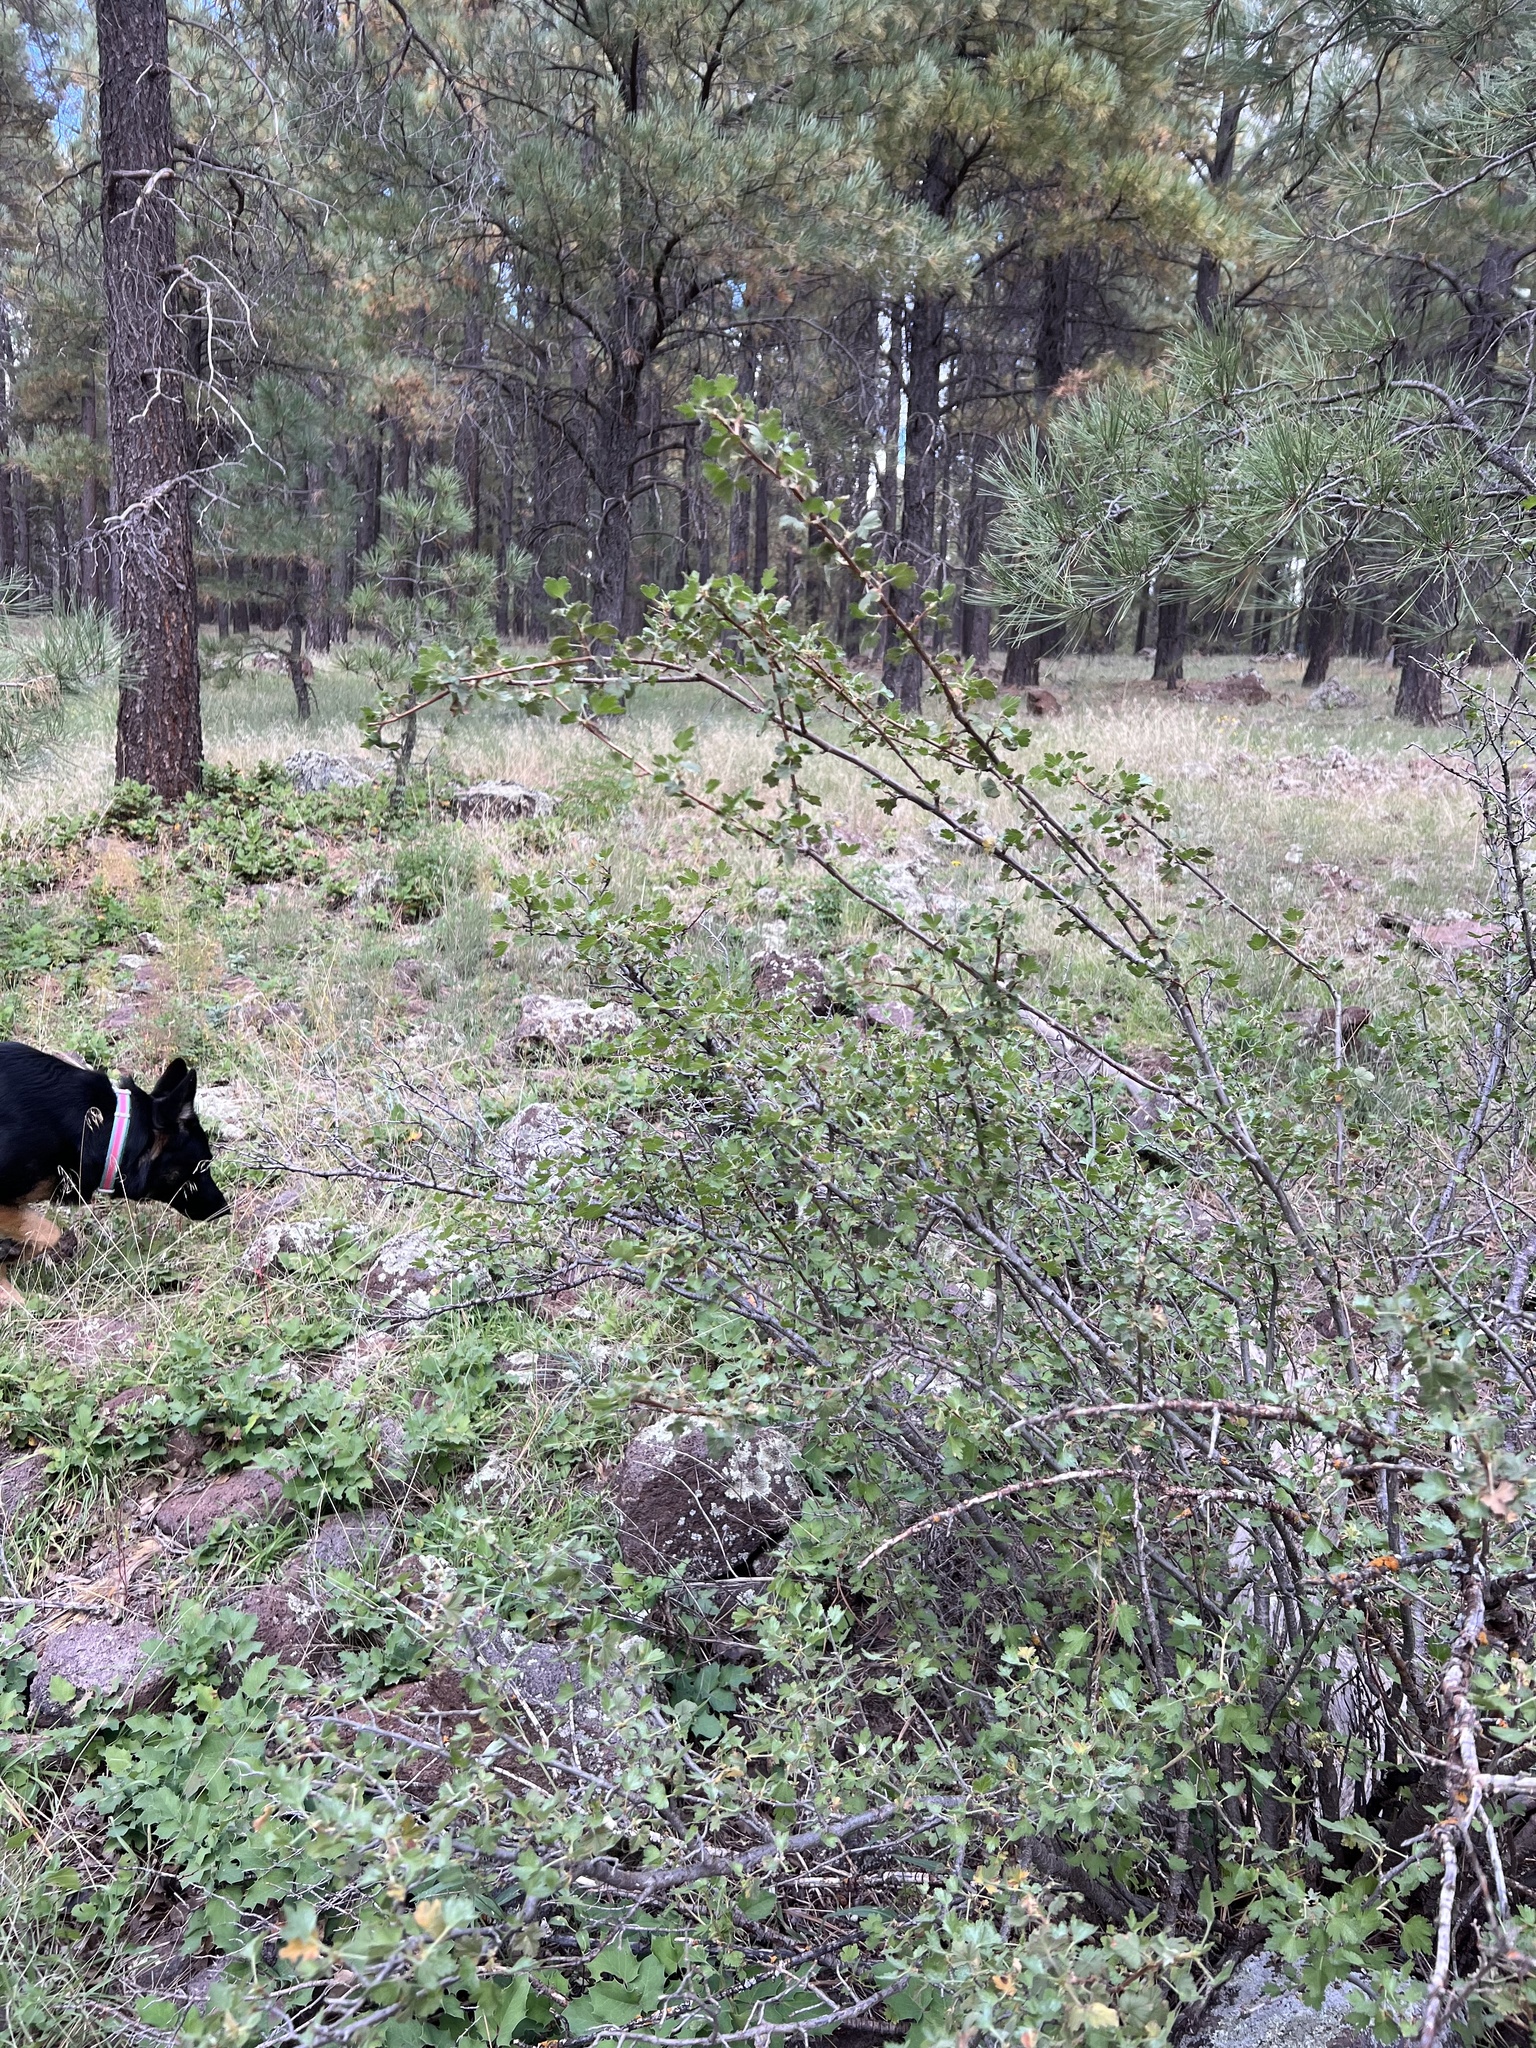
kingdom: Plantae
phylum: Tracheophyta
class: Magnoliopsida
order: Saxifragales
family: Grossulariaceae
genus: Ribes
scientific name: Ribes cereum
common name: Wax currant
